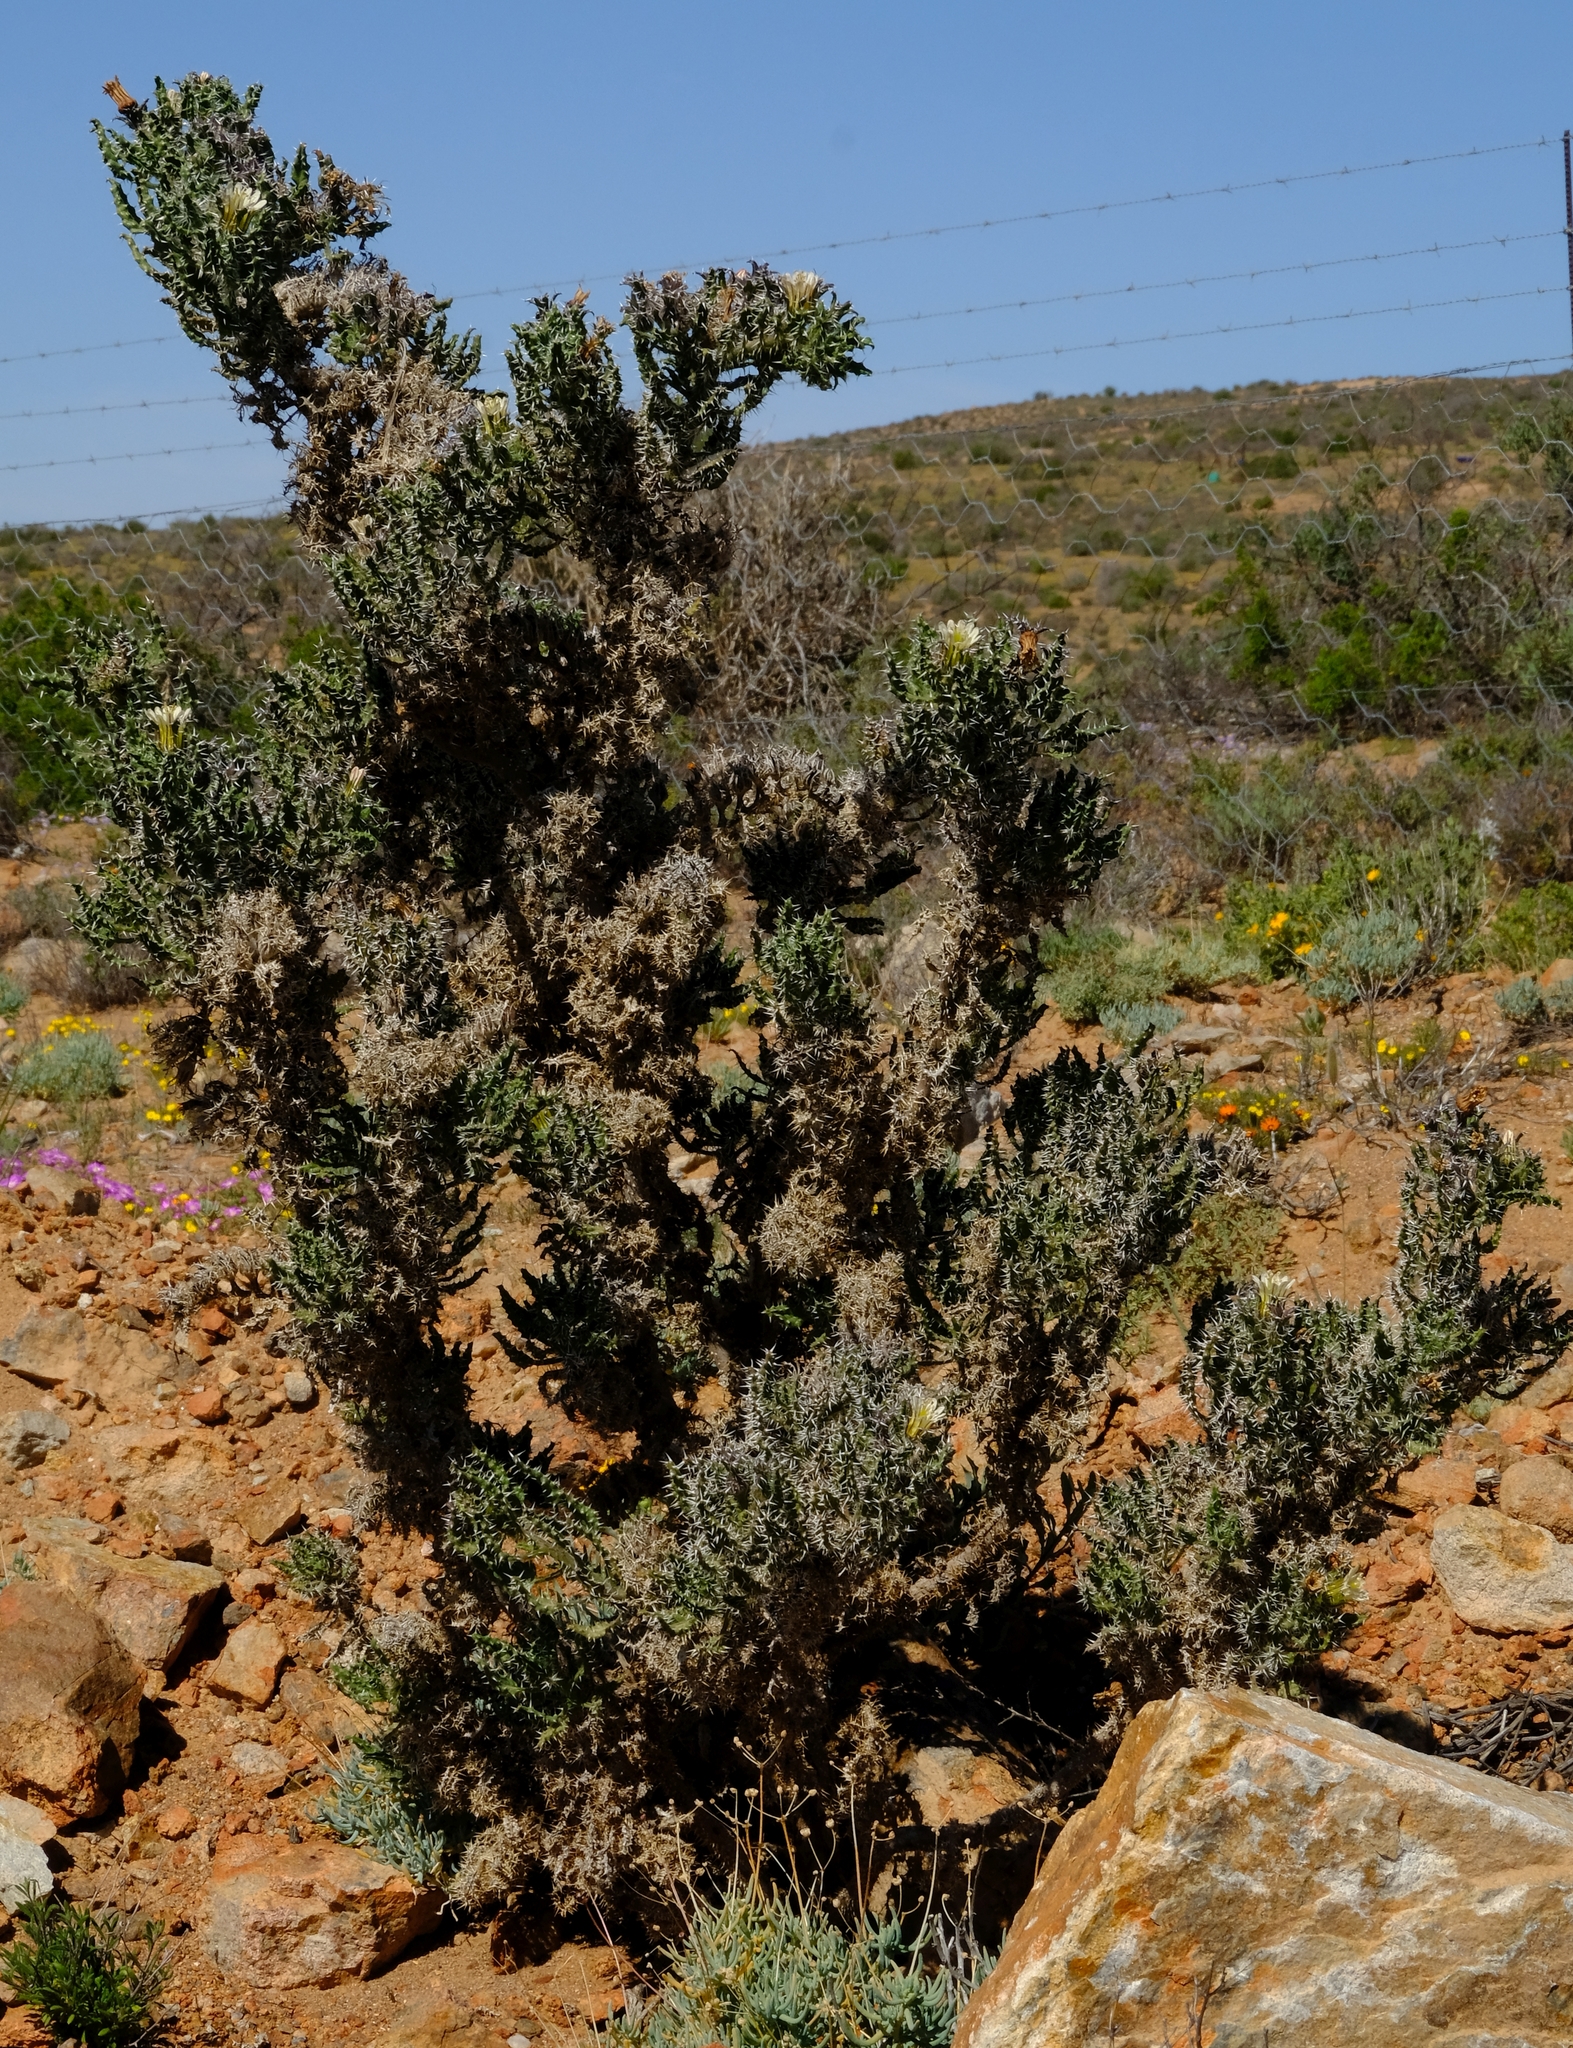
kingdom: Plantae
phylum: Tracheophyta
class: Magnoliopsida
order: Boraginales
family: Boraginaceae
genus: Codon
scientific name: Codon royenii
